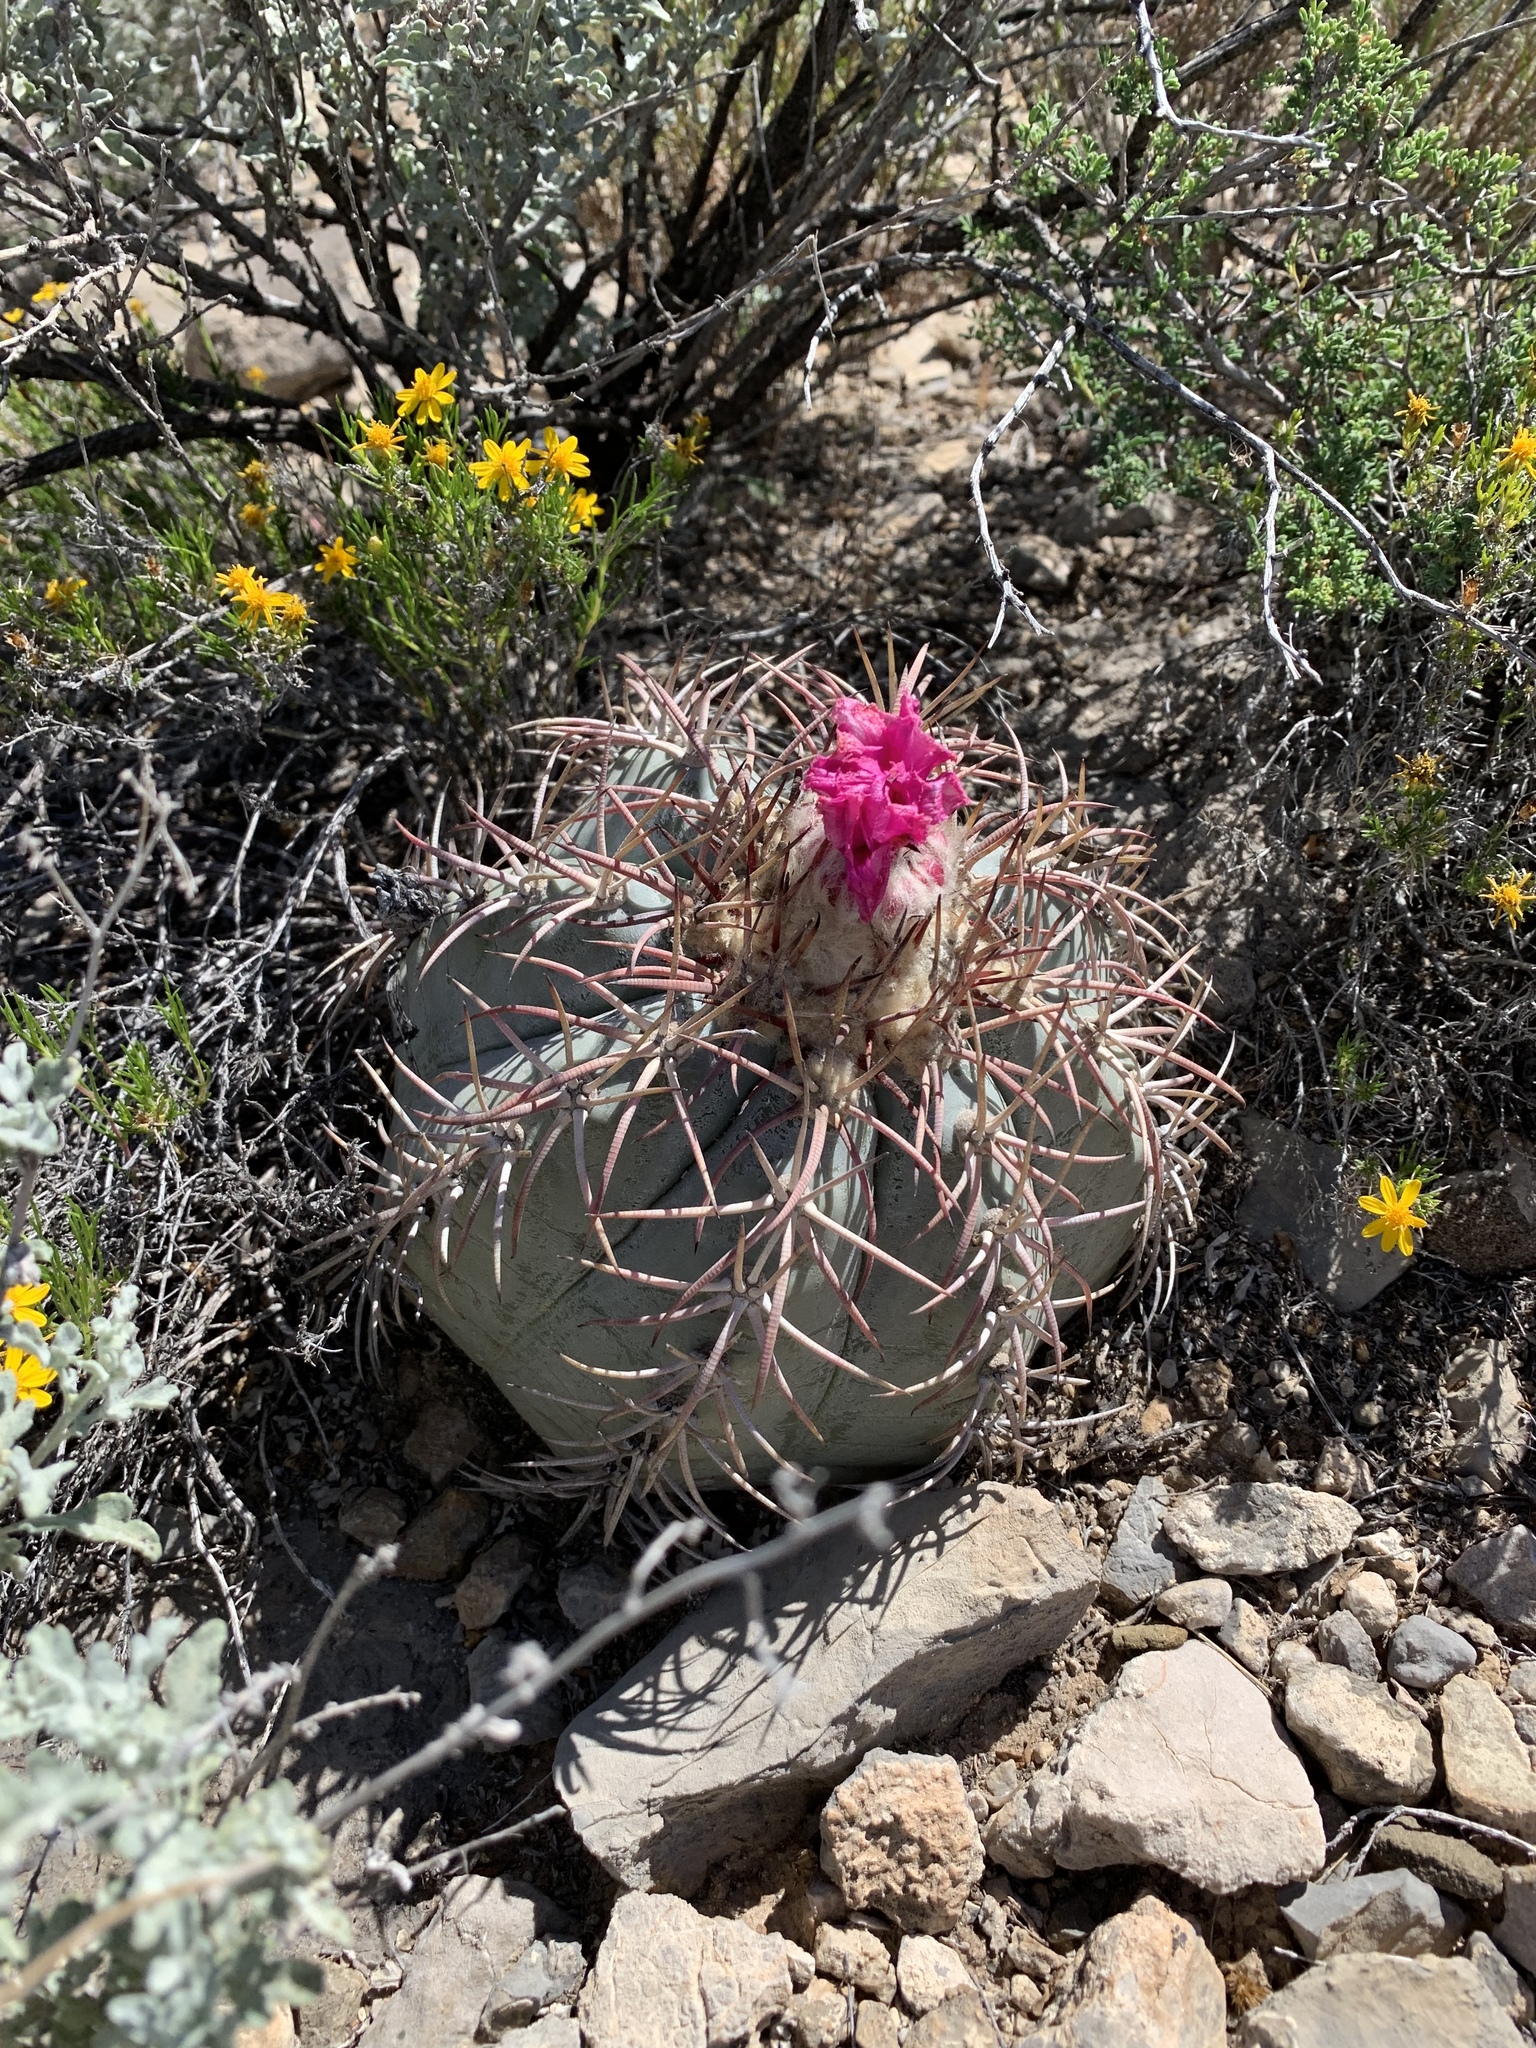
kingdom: Plantae
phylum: Tracheophyta
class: Magnoliopsida
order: Caryophyllales
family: Cactaceae
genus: Echinocactus
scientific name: Echinocactus horizonthalonius
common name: Devilshead
